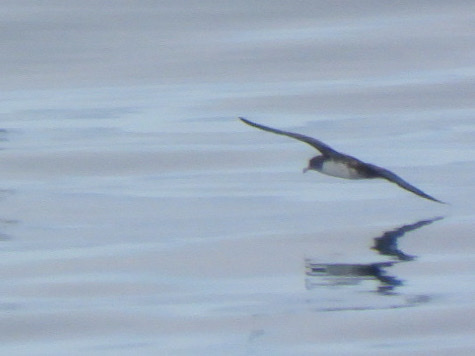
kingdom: Animalia
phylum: Chordata
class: Aves
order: Procellariiformes
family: Procellariidae
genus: Puffinus
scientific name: Puffinus creatopus
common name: Pink-footed shearwater
